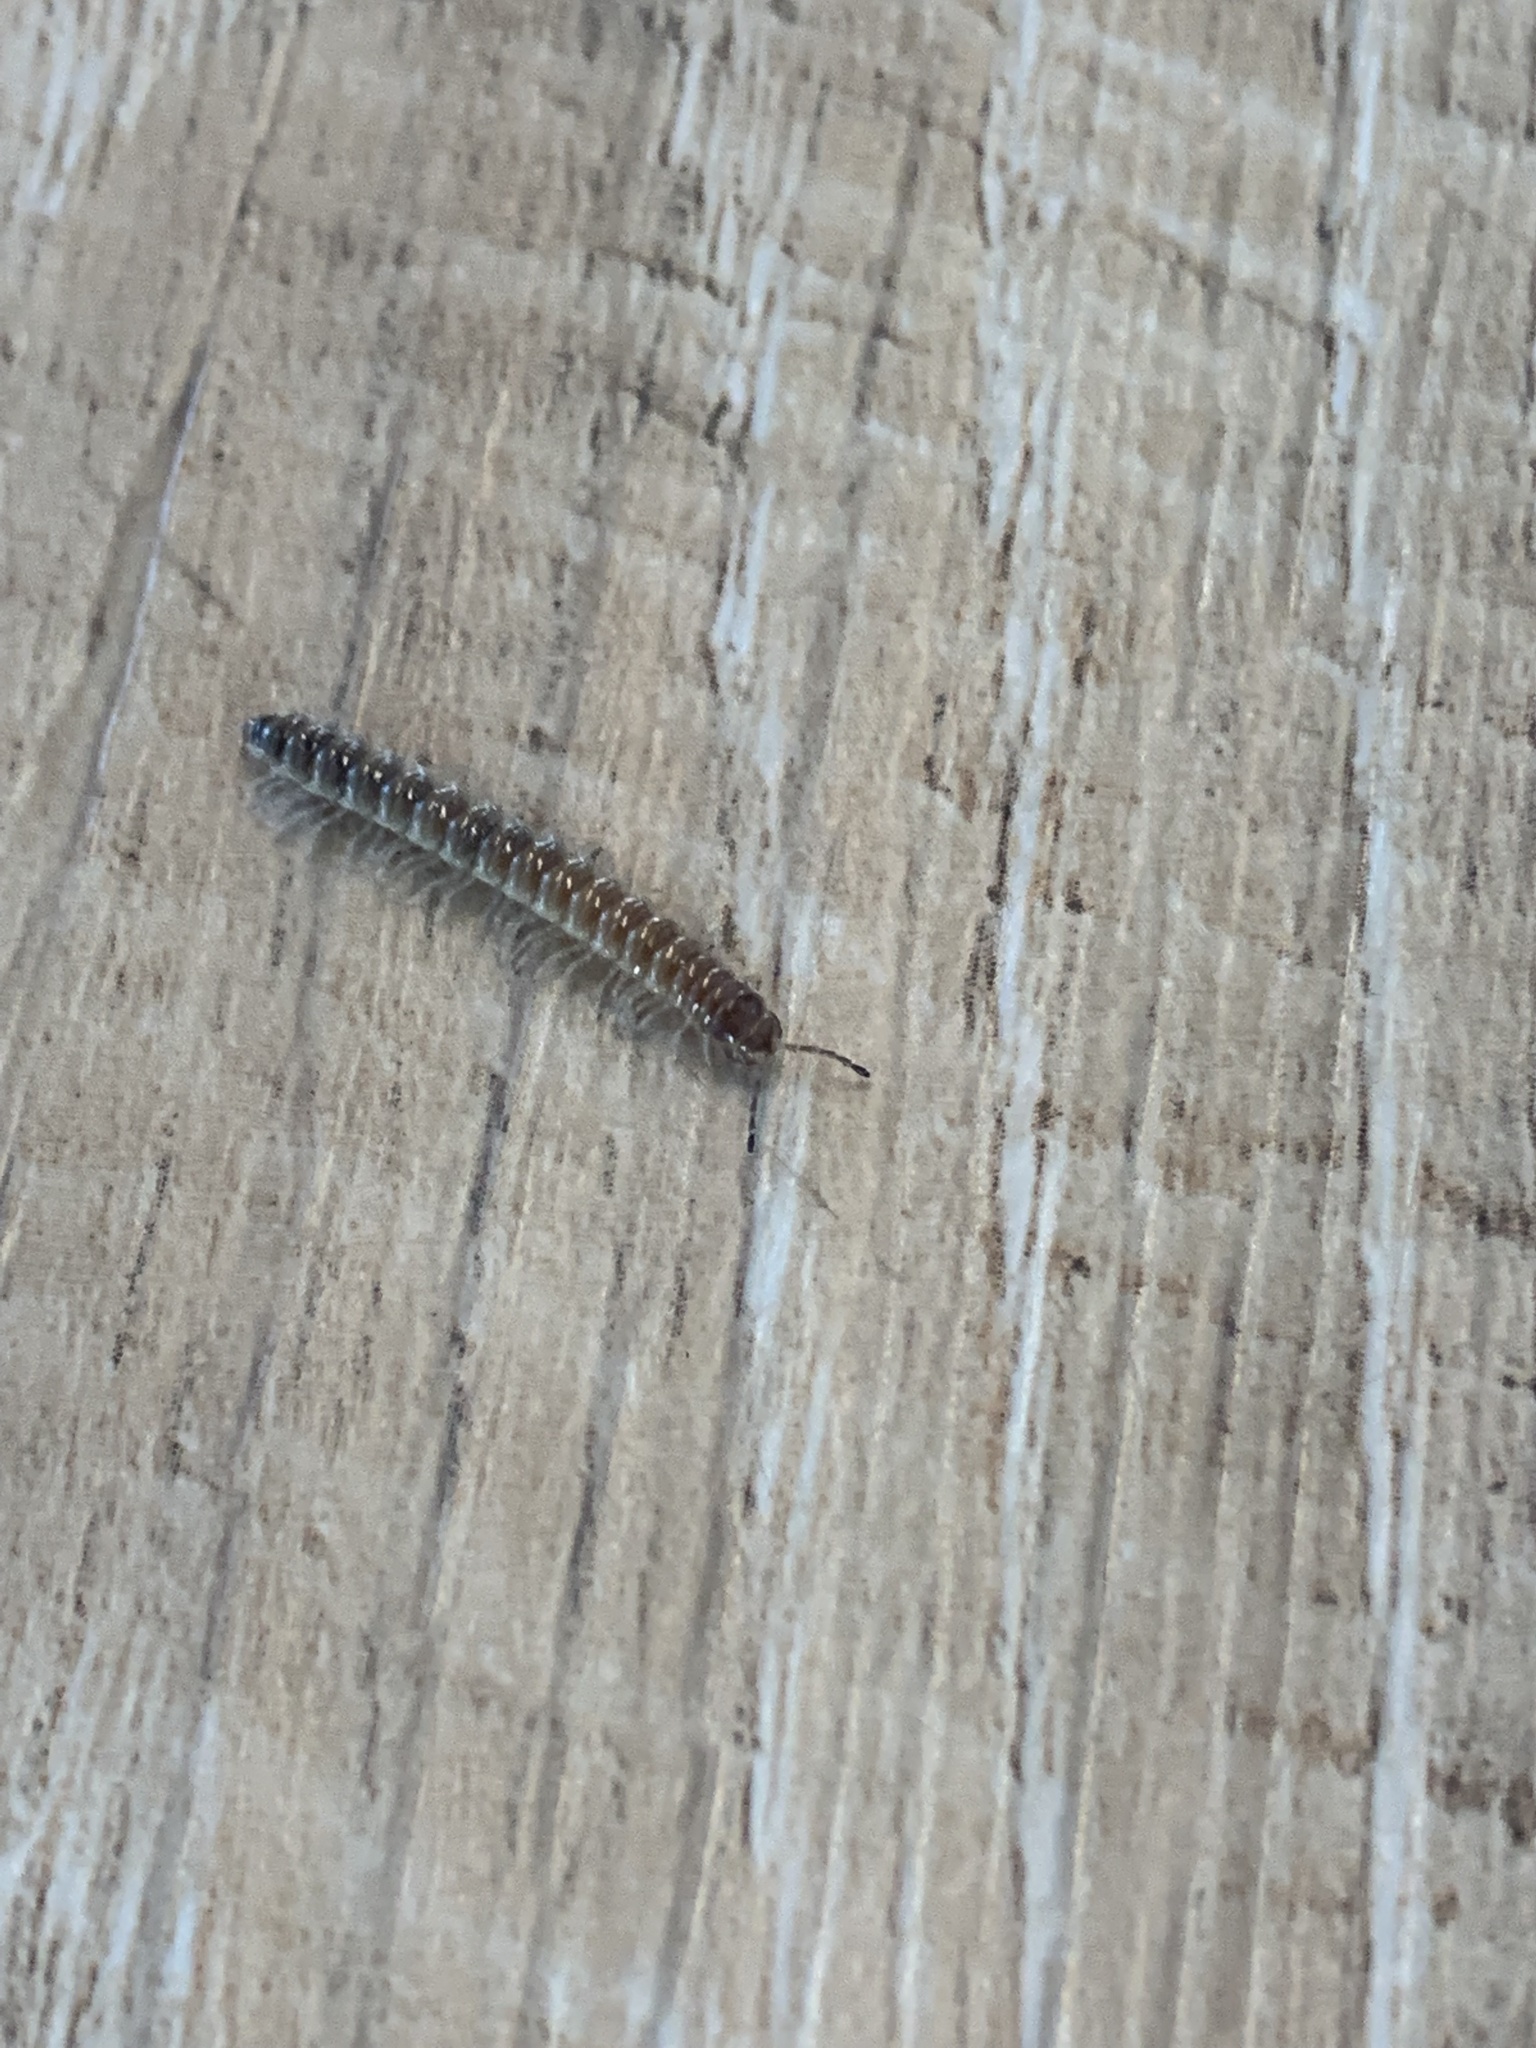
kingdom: Animalia
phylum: Arthropoda
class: Diplopoda
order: Polydesmida
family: Paradoxosomatidae
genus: Oxidus
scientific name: Oxidus gracilis
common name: Greenhouse millipede
